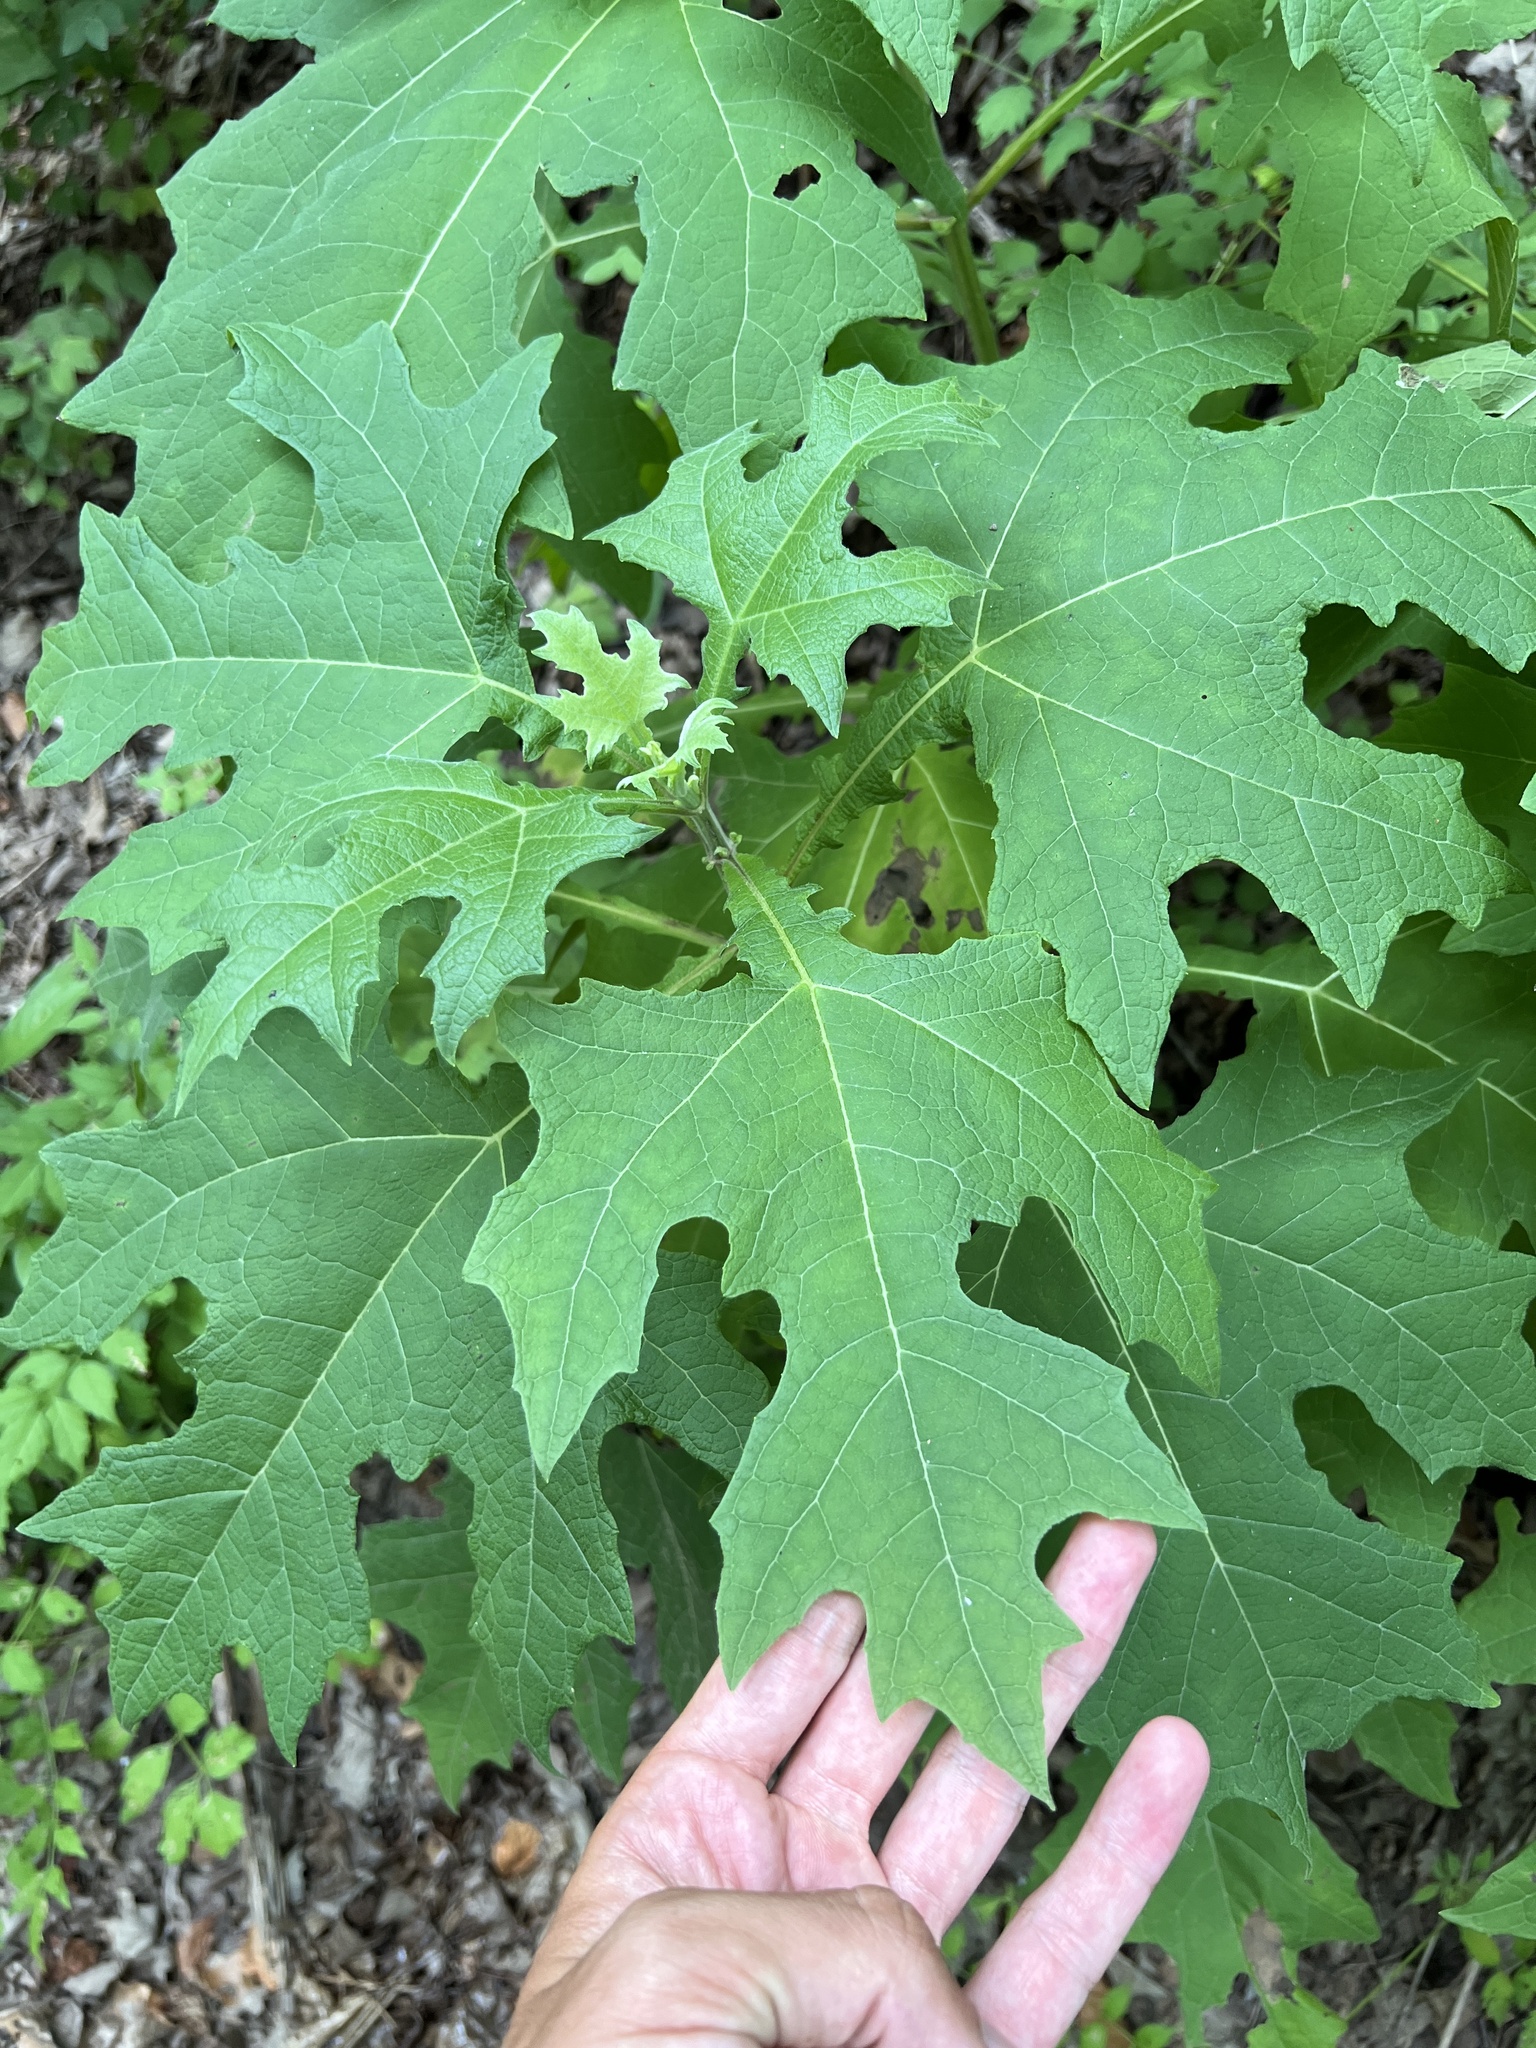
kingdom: Plantae
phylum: Tracheophyta
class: Magnoliopsida
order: Asterales
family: Asteraceae
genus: Smallanthus
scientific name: Smallanthus uvedalia
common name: Bear's-foot
